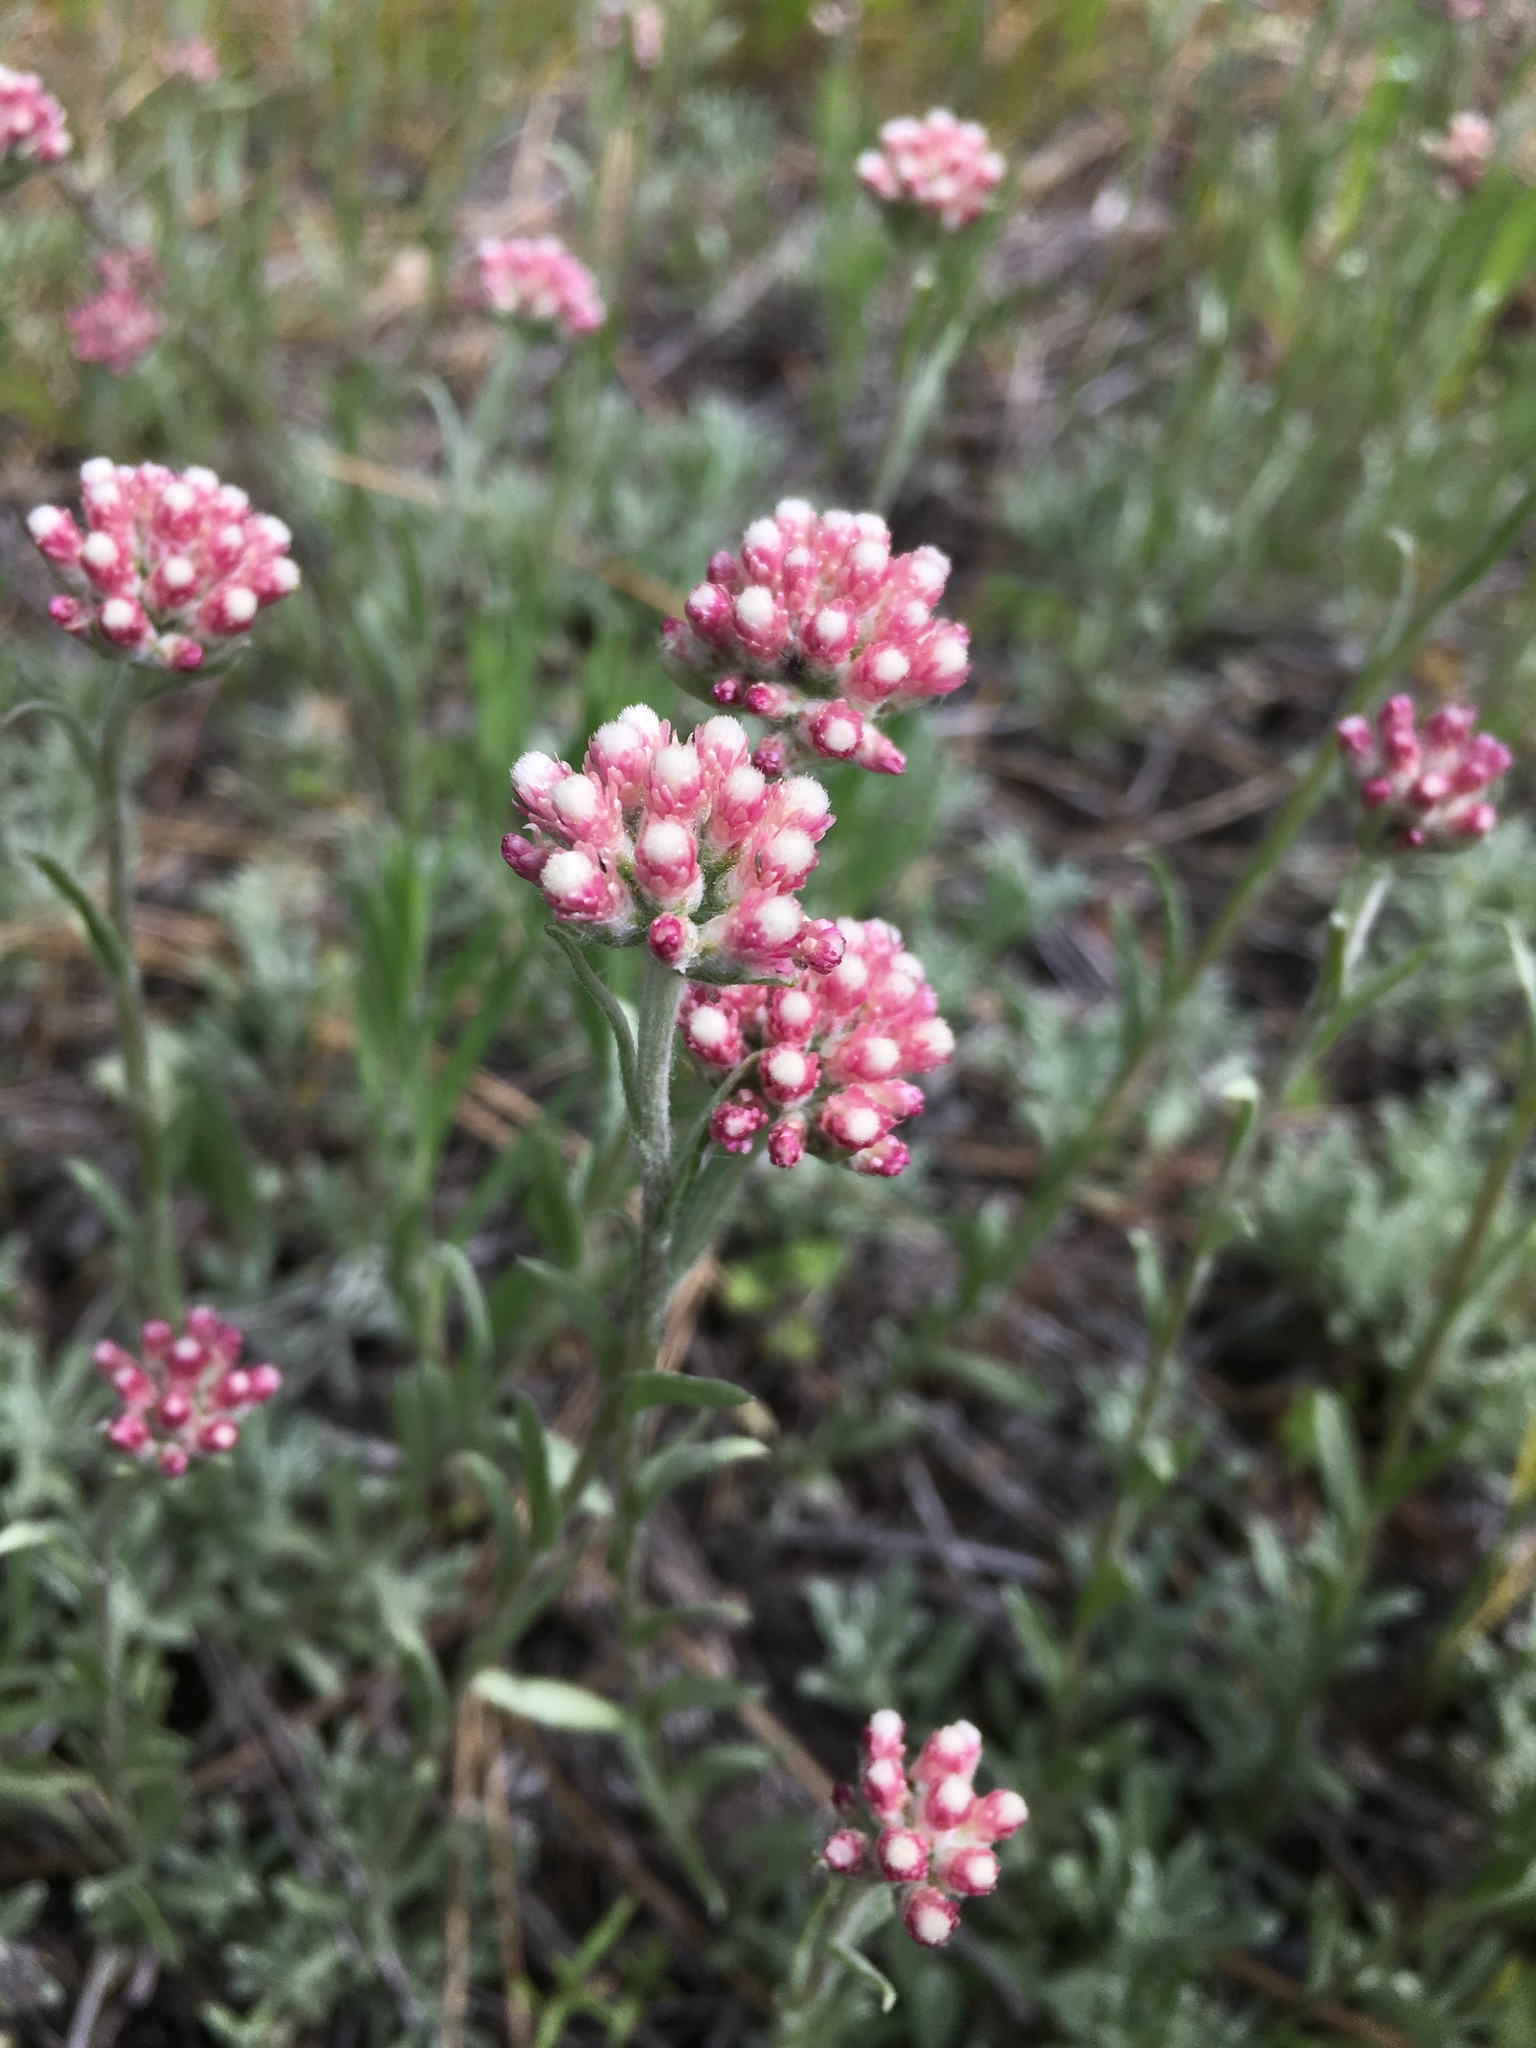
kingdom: Plantae
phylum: Tracheophyta
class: Magnoliopsida
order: Asterales
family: Asteraceae
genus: Antennaria
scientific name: Antennaria rosea
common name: Rosy pussytoes
